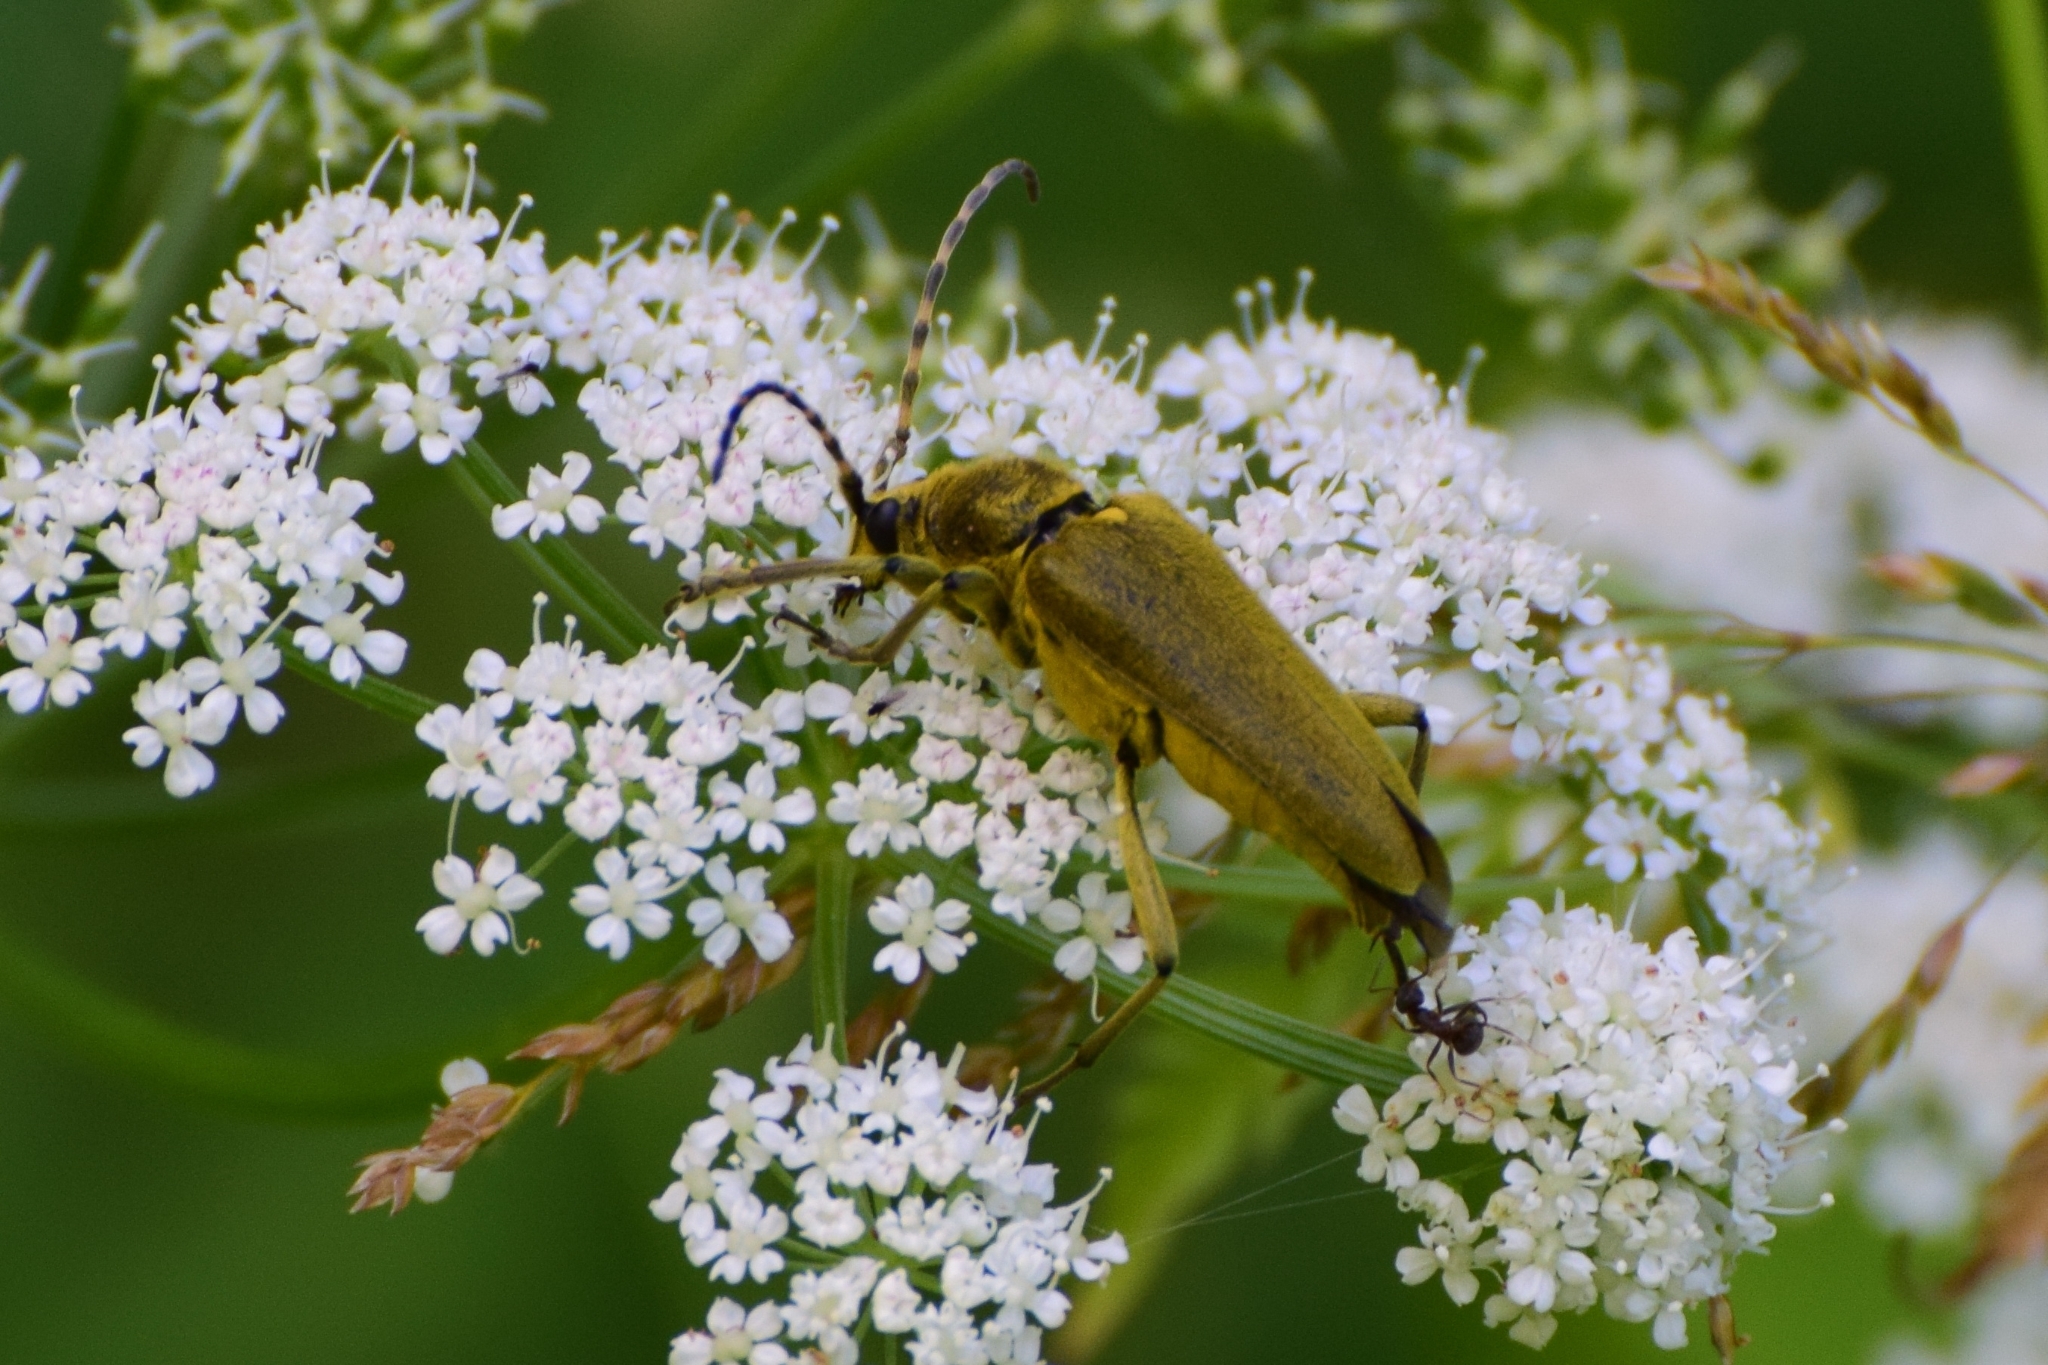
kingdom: Animalia
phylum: Arthropoda
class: Insecta
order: Coleoptera
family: Cerambycidae
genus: Lepturobosca
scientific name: Lepturobosca virens
